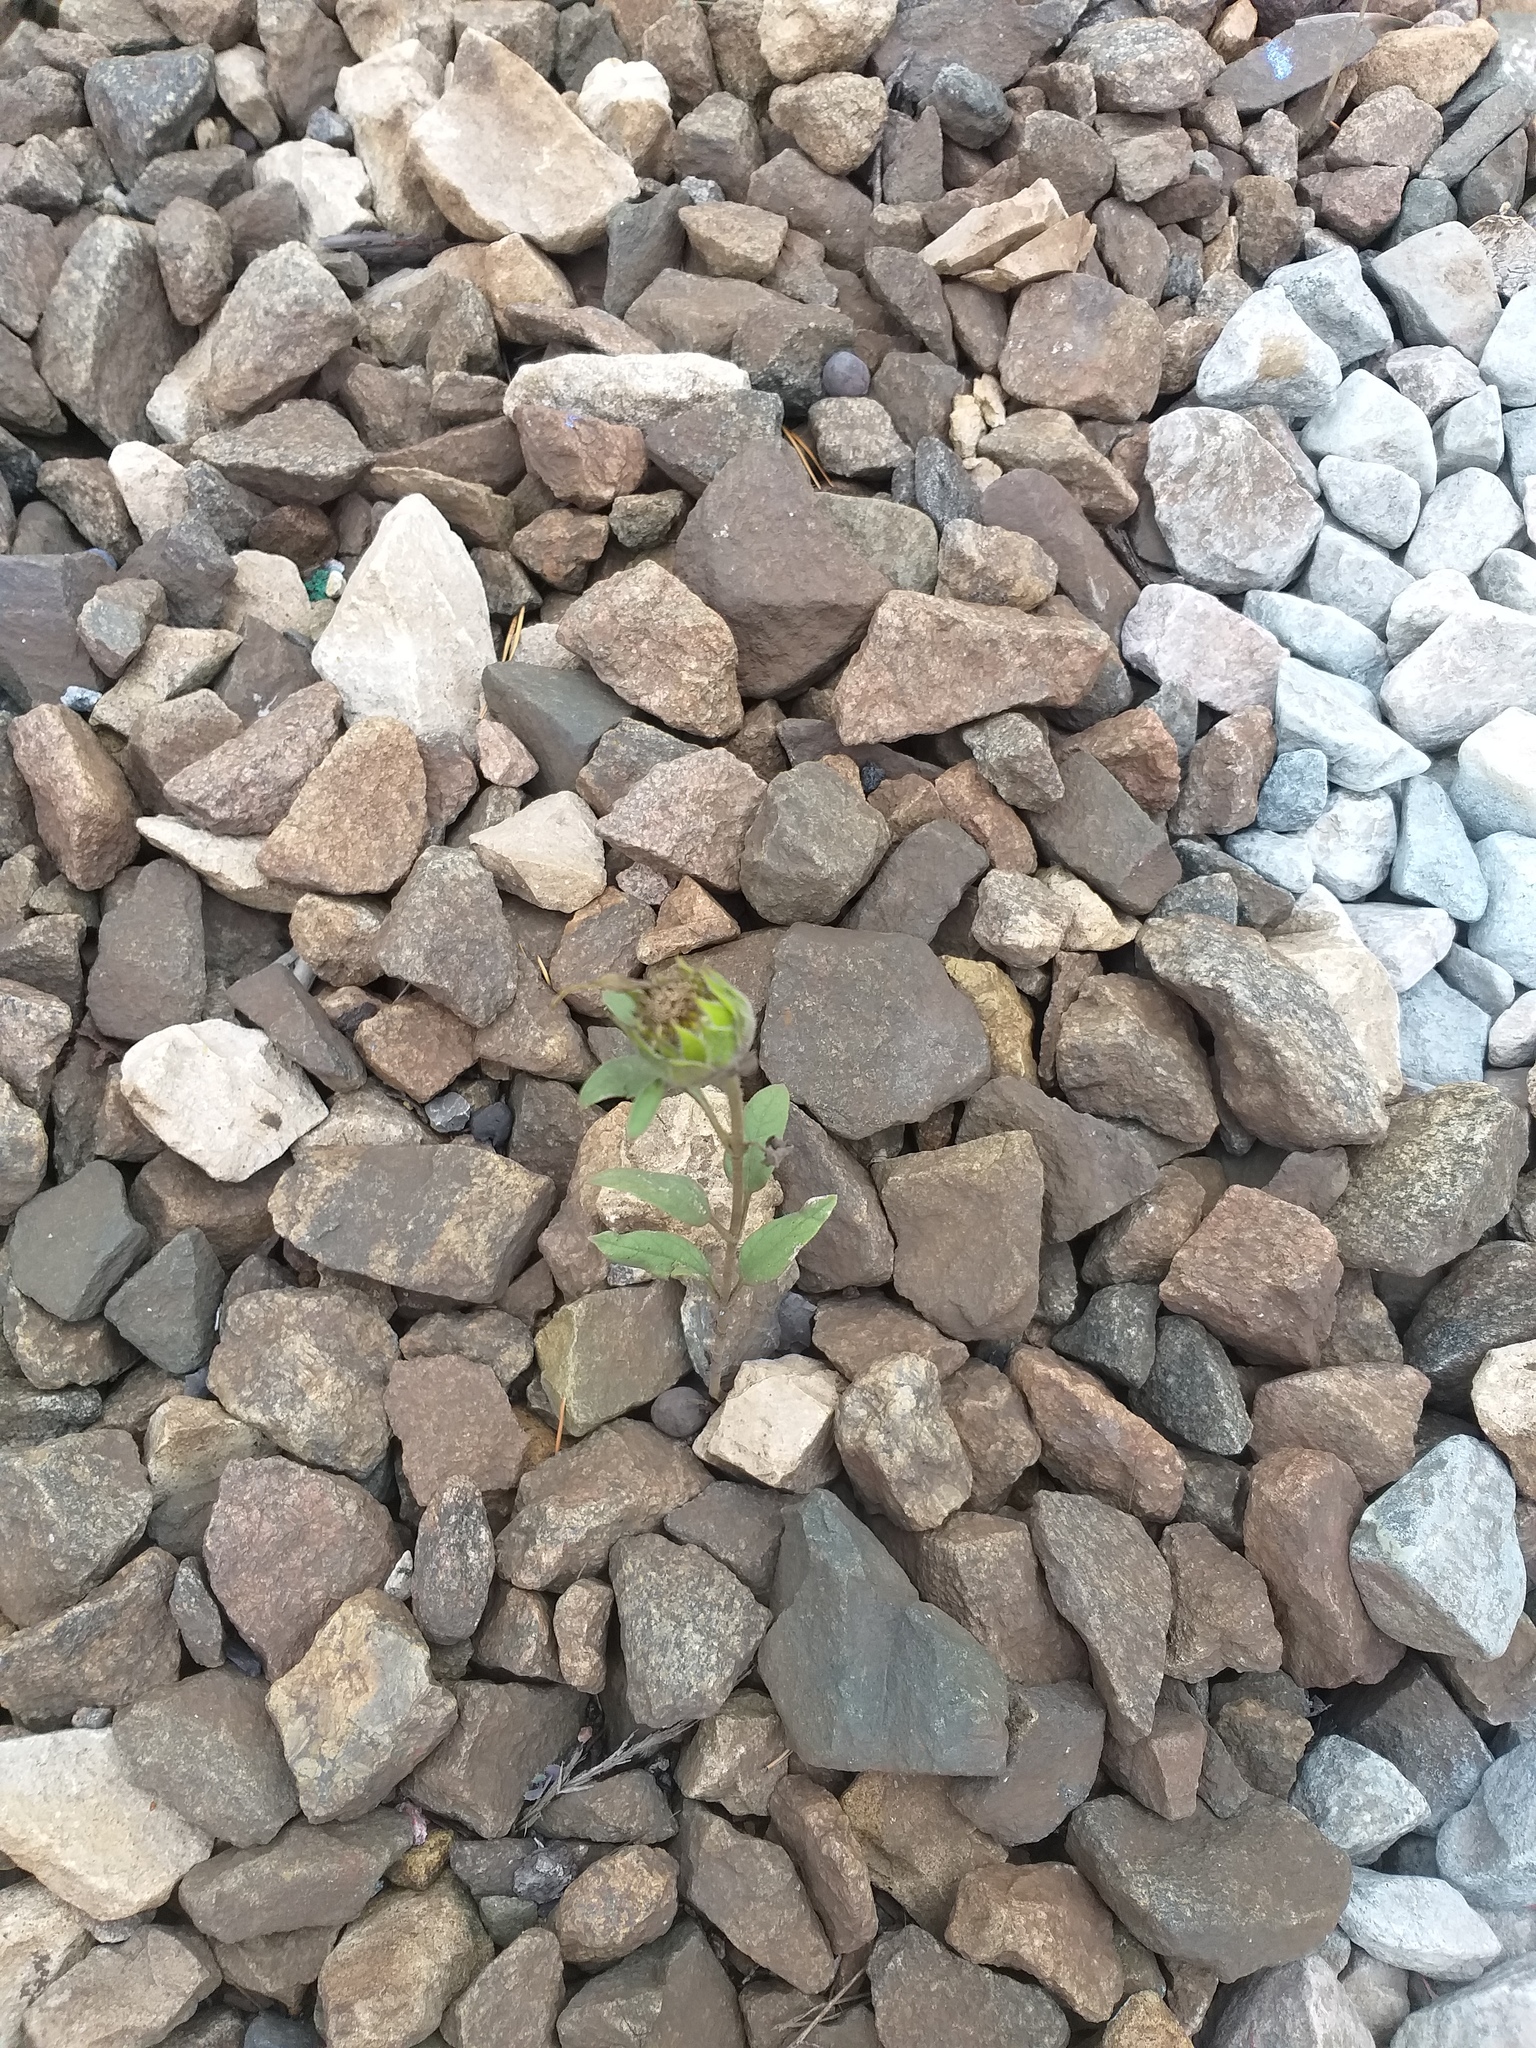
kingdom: Plantae
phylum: Tracheophyta
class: Magnoliopsida
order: Asterales
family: Asteraceae
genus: Helianthus
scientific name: Helianthus annuus
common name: Sunflower
